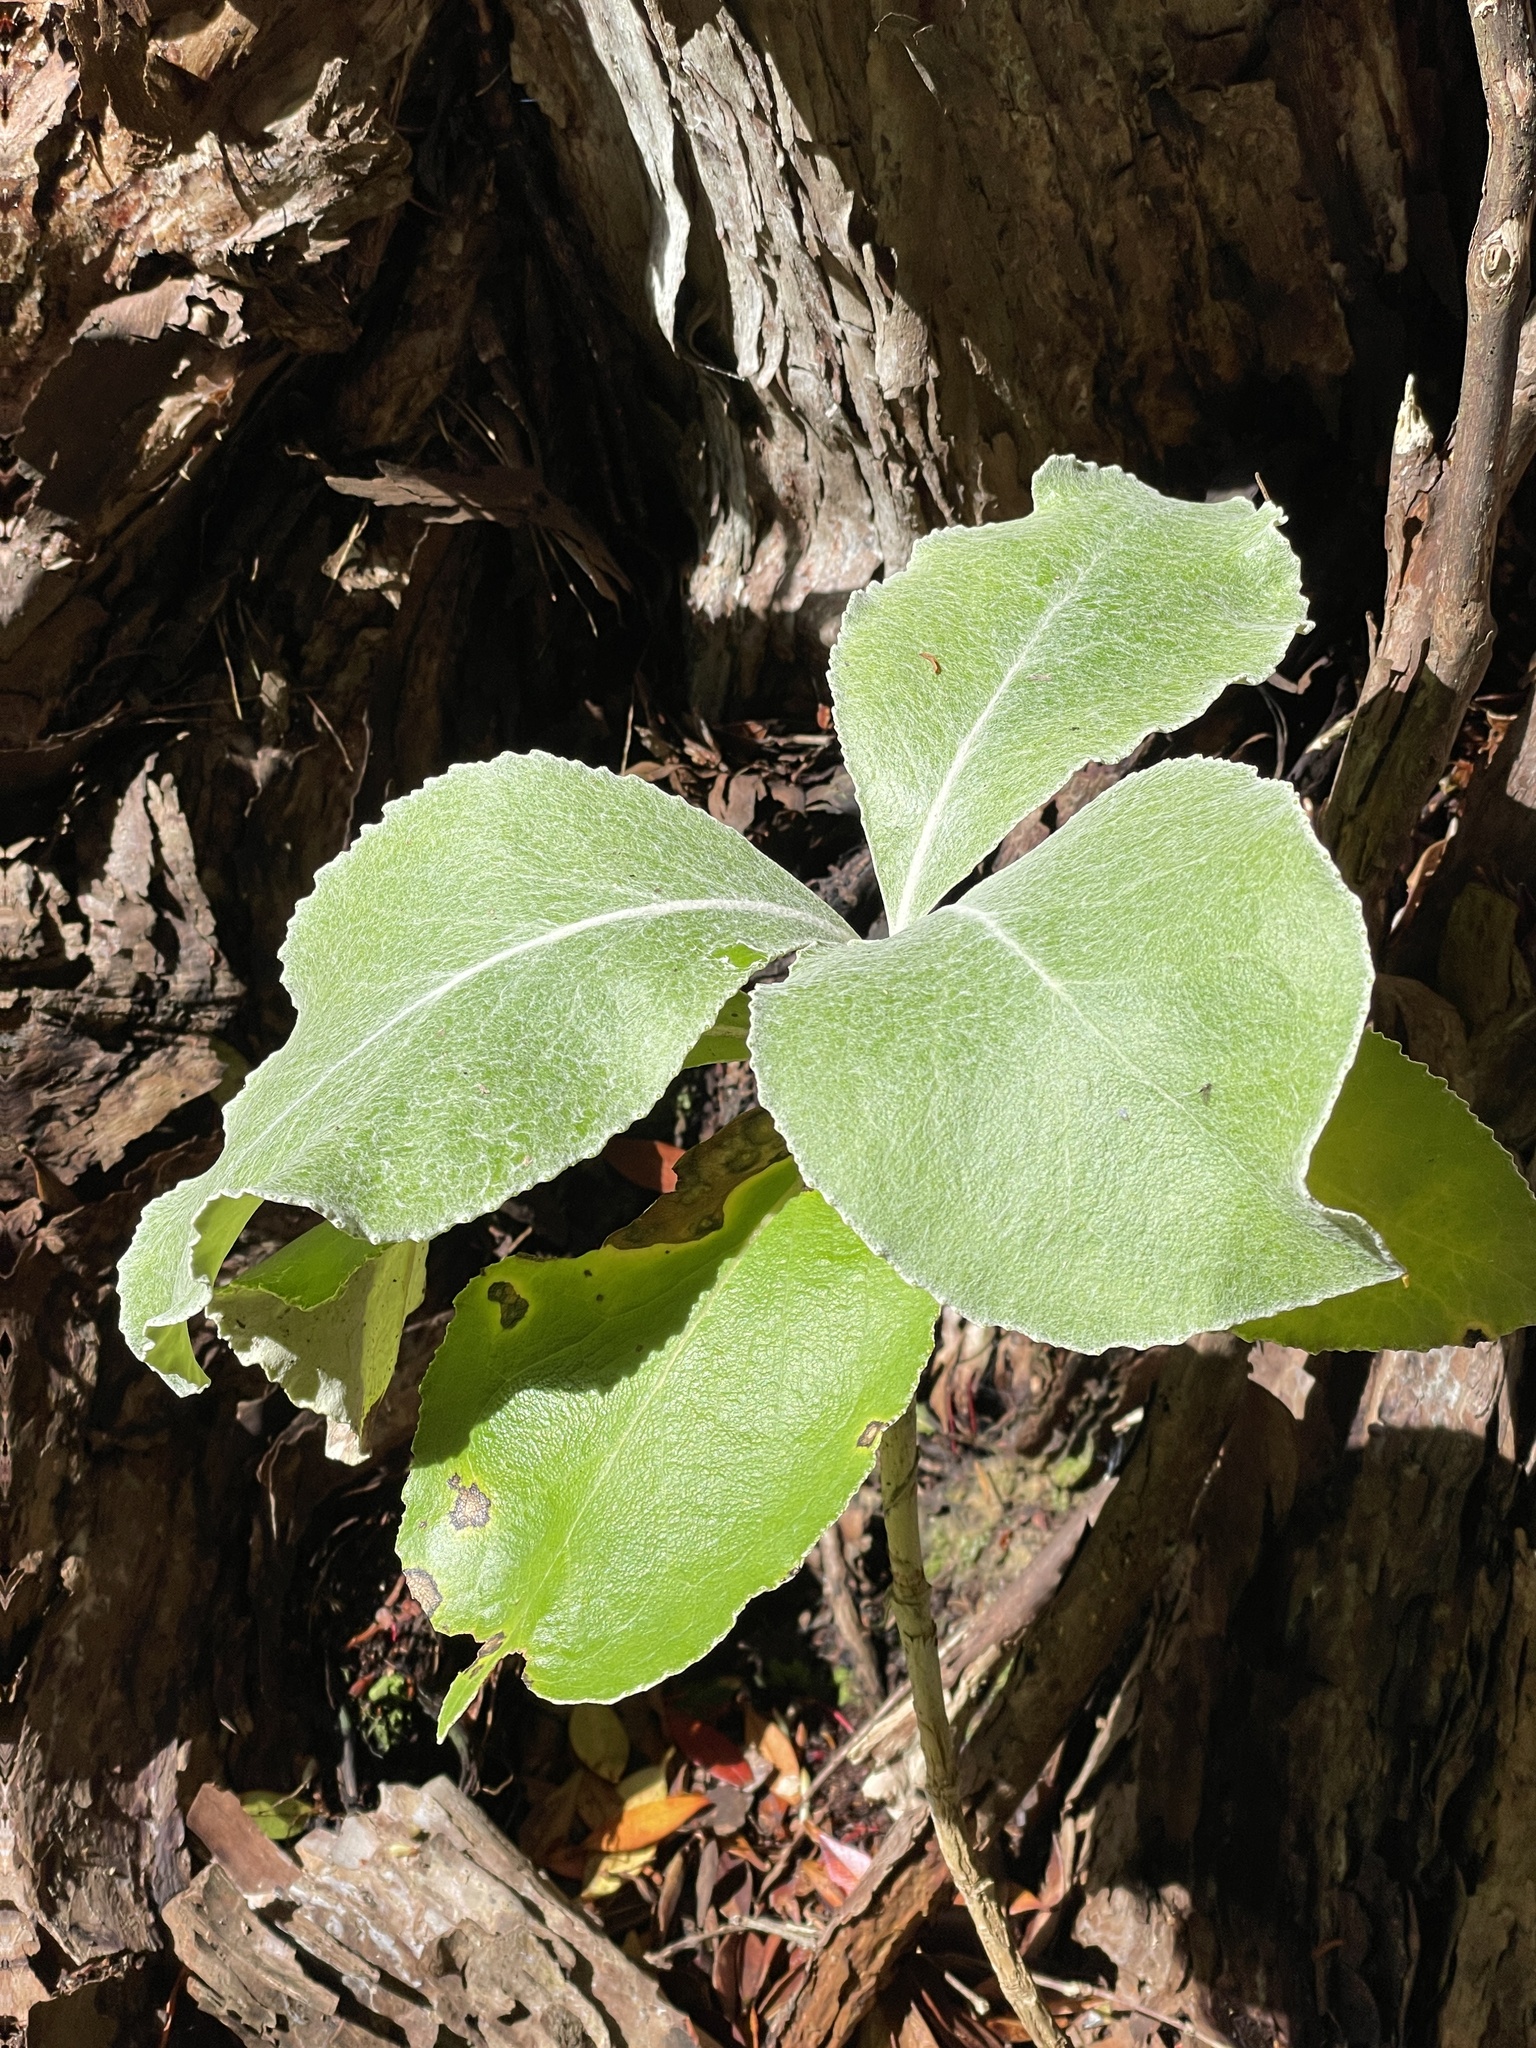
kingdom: Plantae
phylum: Tracheophyta
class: Magnoliopsida
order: Asterales
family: Asteraceae
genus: Macrolearia
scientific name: Macrolearia lyallii
